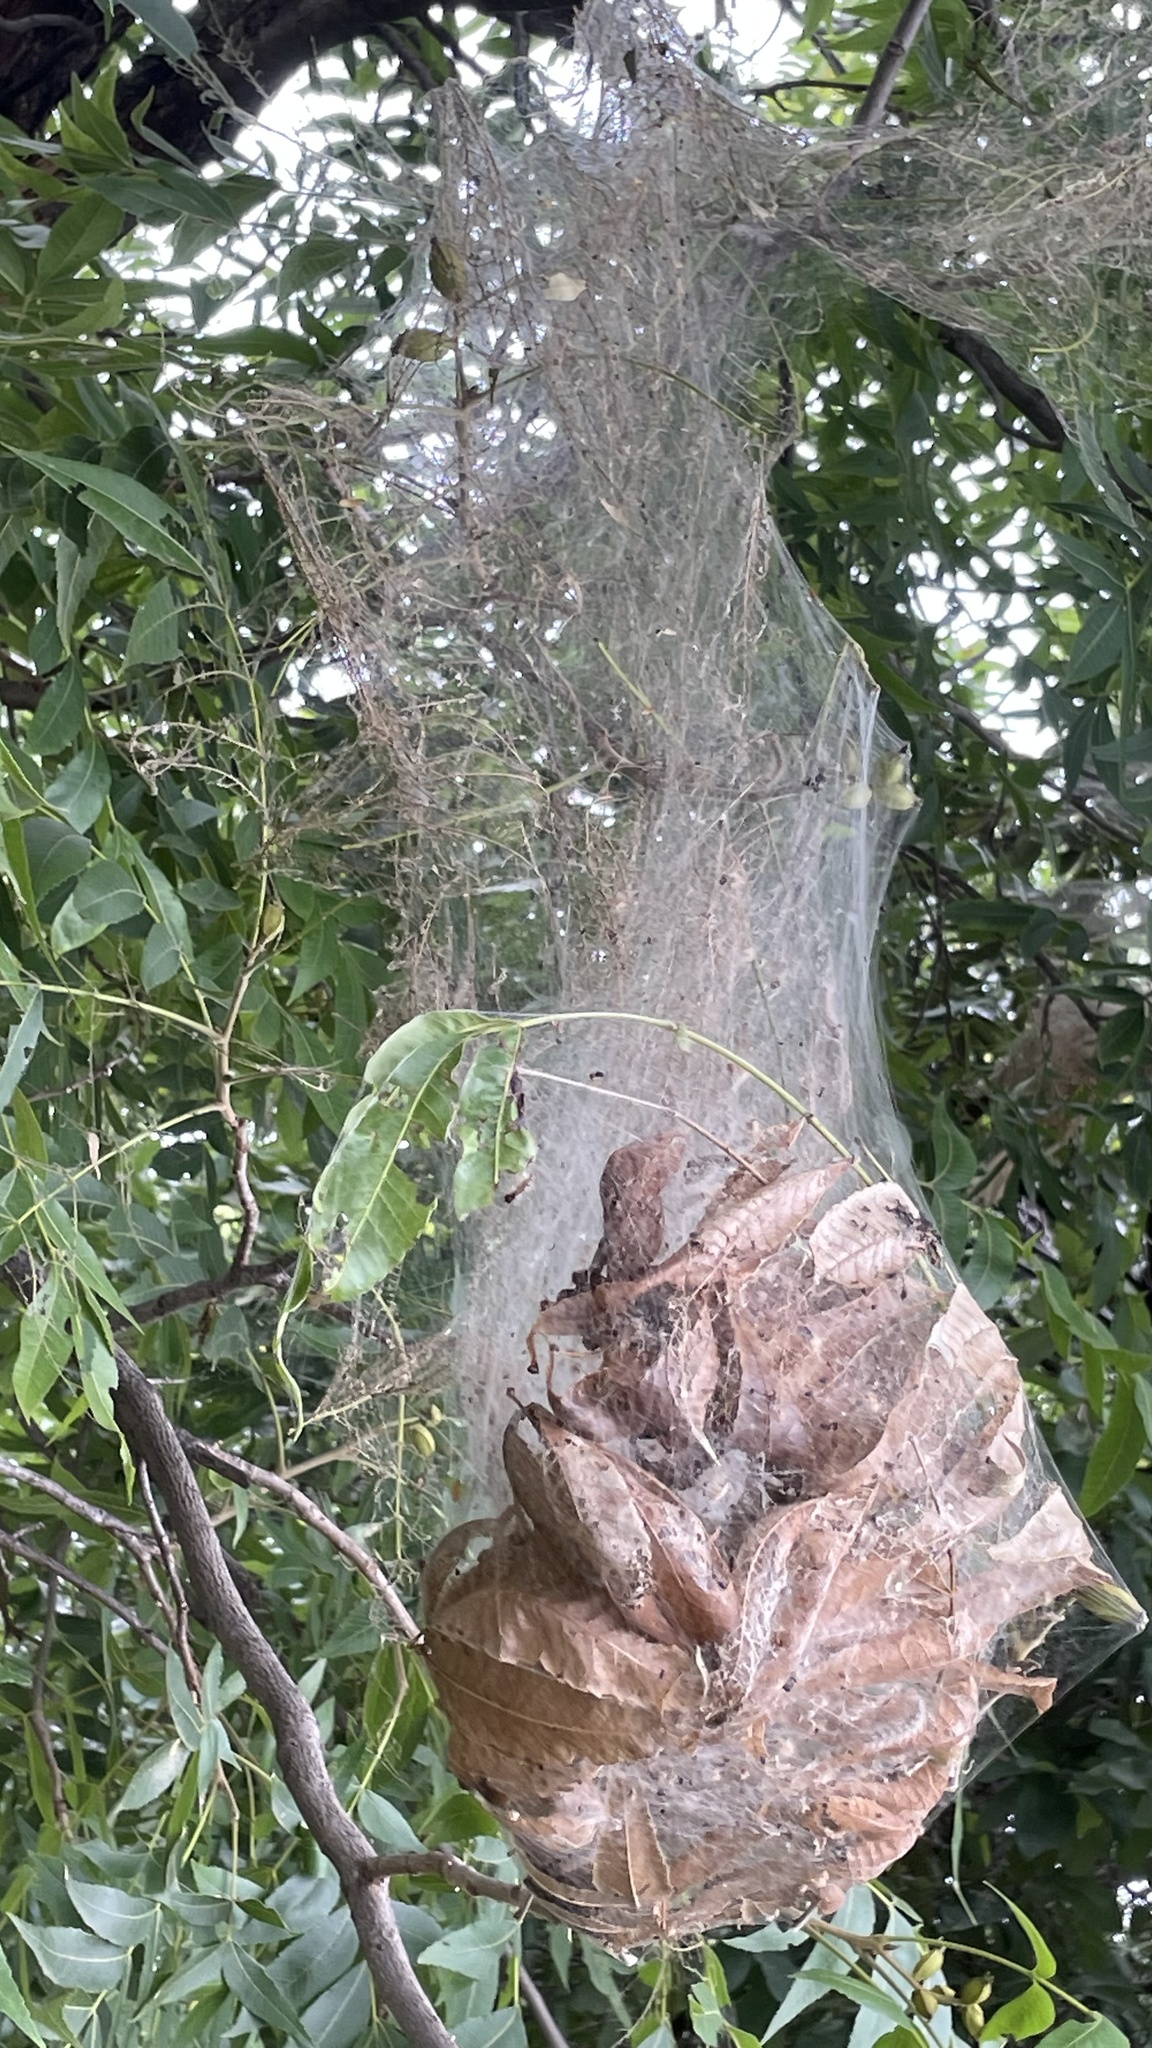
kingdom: Animalia
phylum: Arthropoda
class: Insecta
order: Lepidoptera
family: Erebidae
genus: Hyphantria
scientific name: Hyphantria cunea
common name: American white moth
